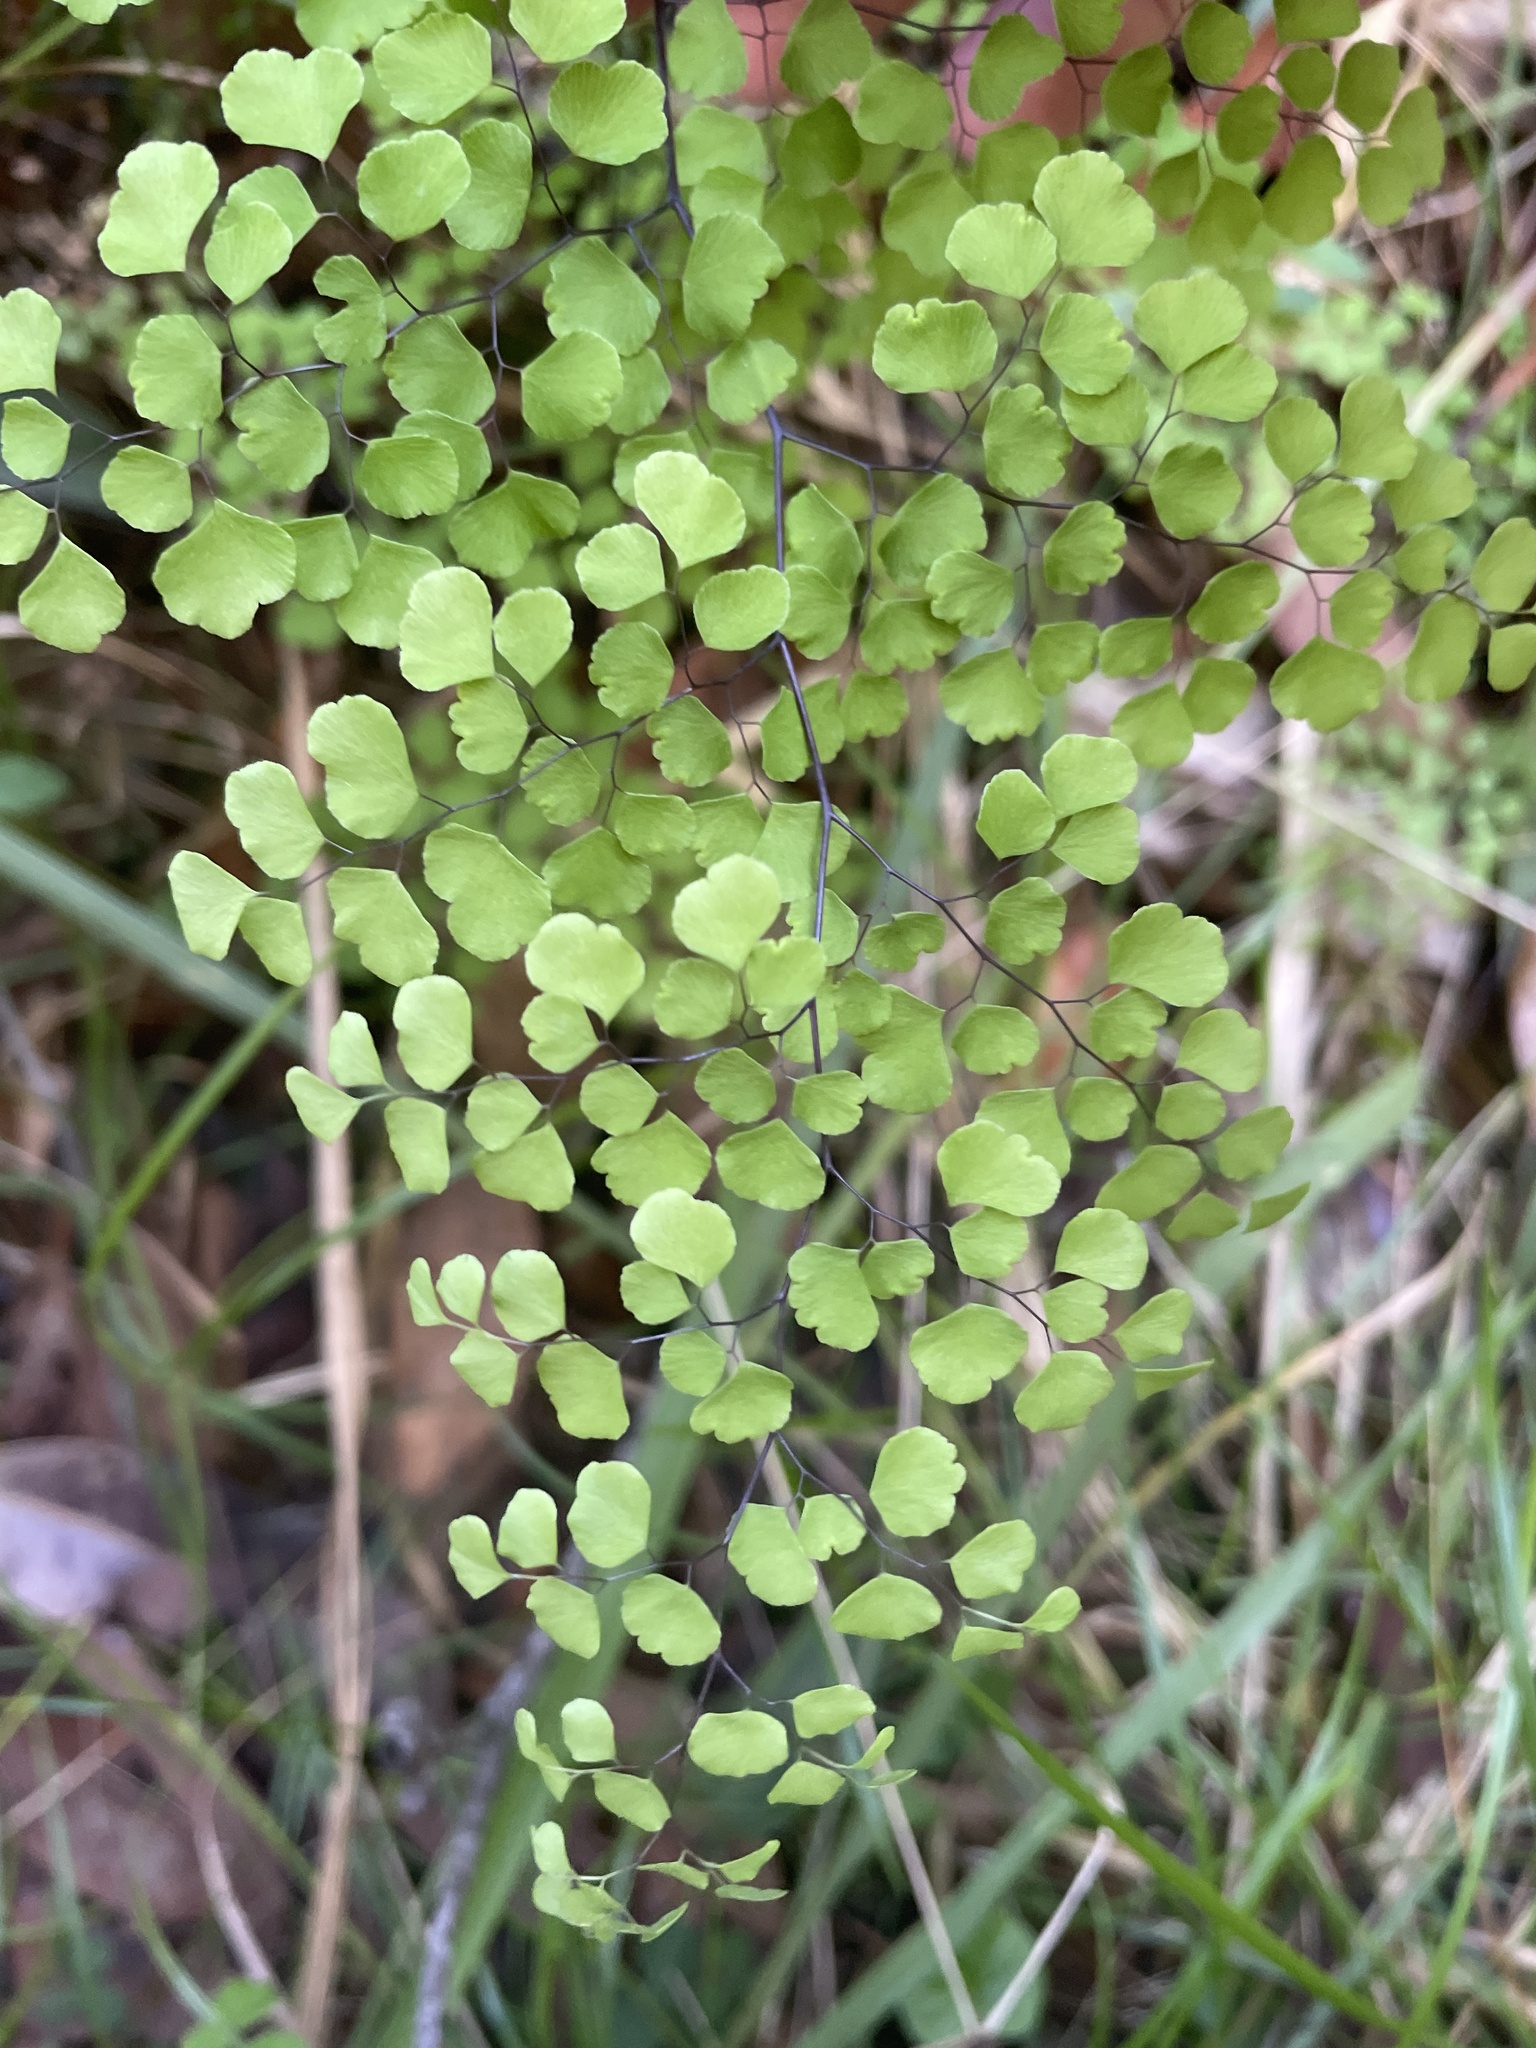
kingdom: Plantae
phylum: Tracheophyta
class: Polypodiopsida
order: Polypodiales
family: Pteridaceae
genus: Adiantum
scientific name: Adiantum aethiopicum
